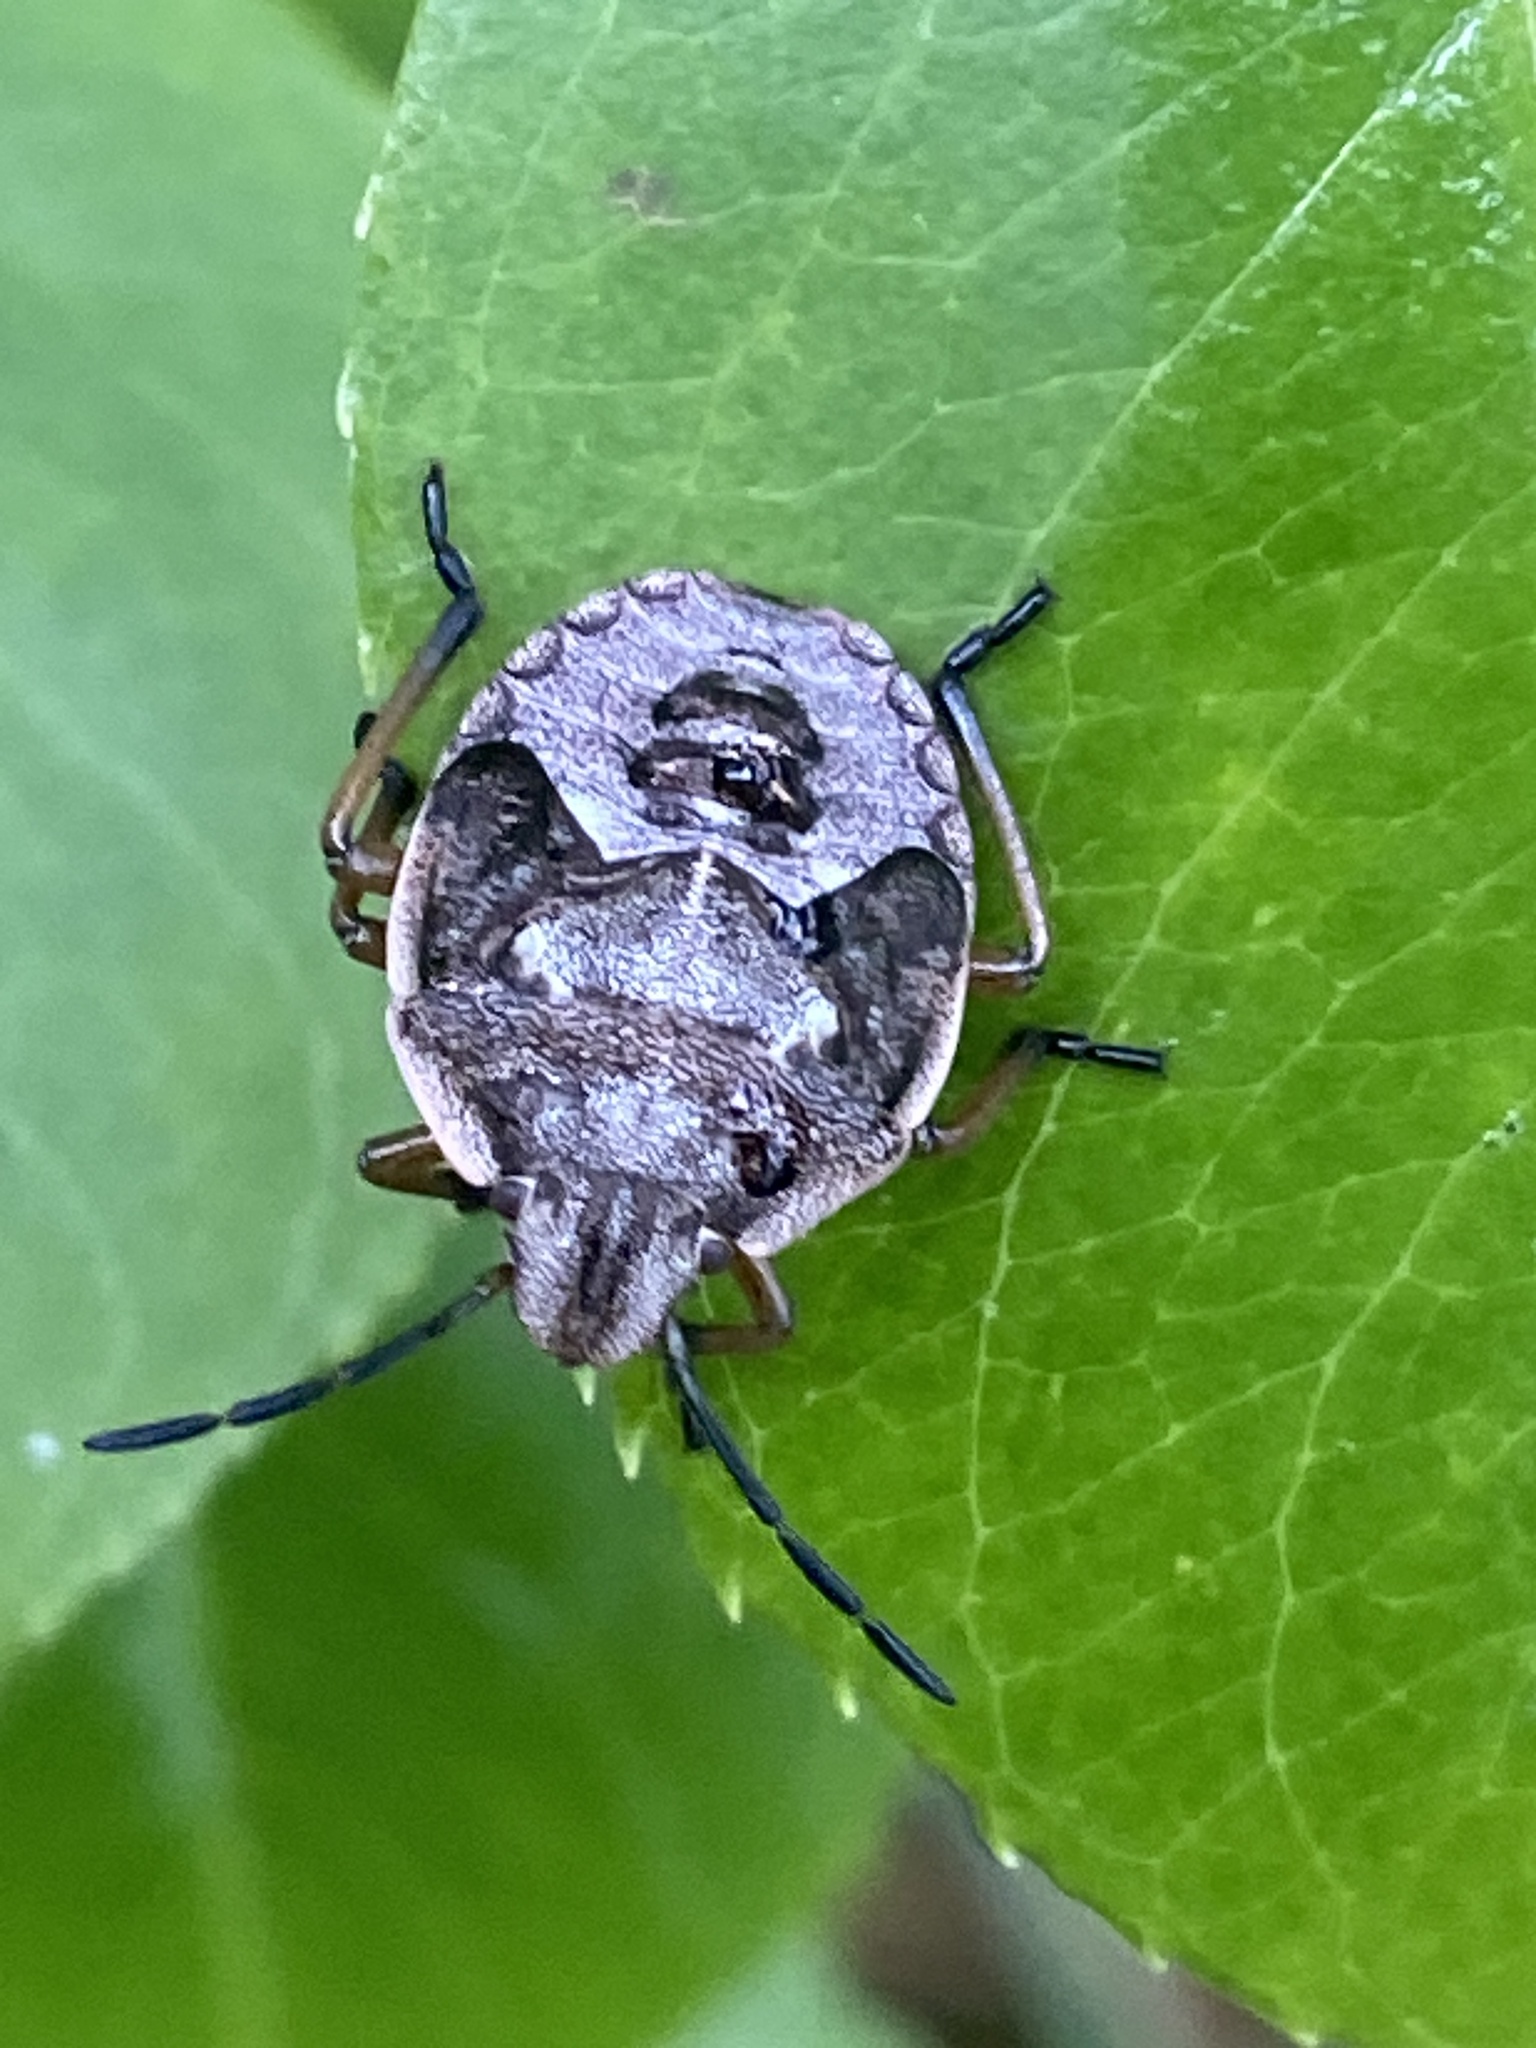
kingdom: Animalia
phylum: Arthropoda
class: Insecta
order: Hemiptera
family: Pentatomidae
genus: Chlorochroa
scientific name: Chlorochroa pinicola
